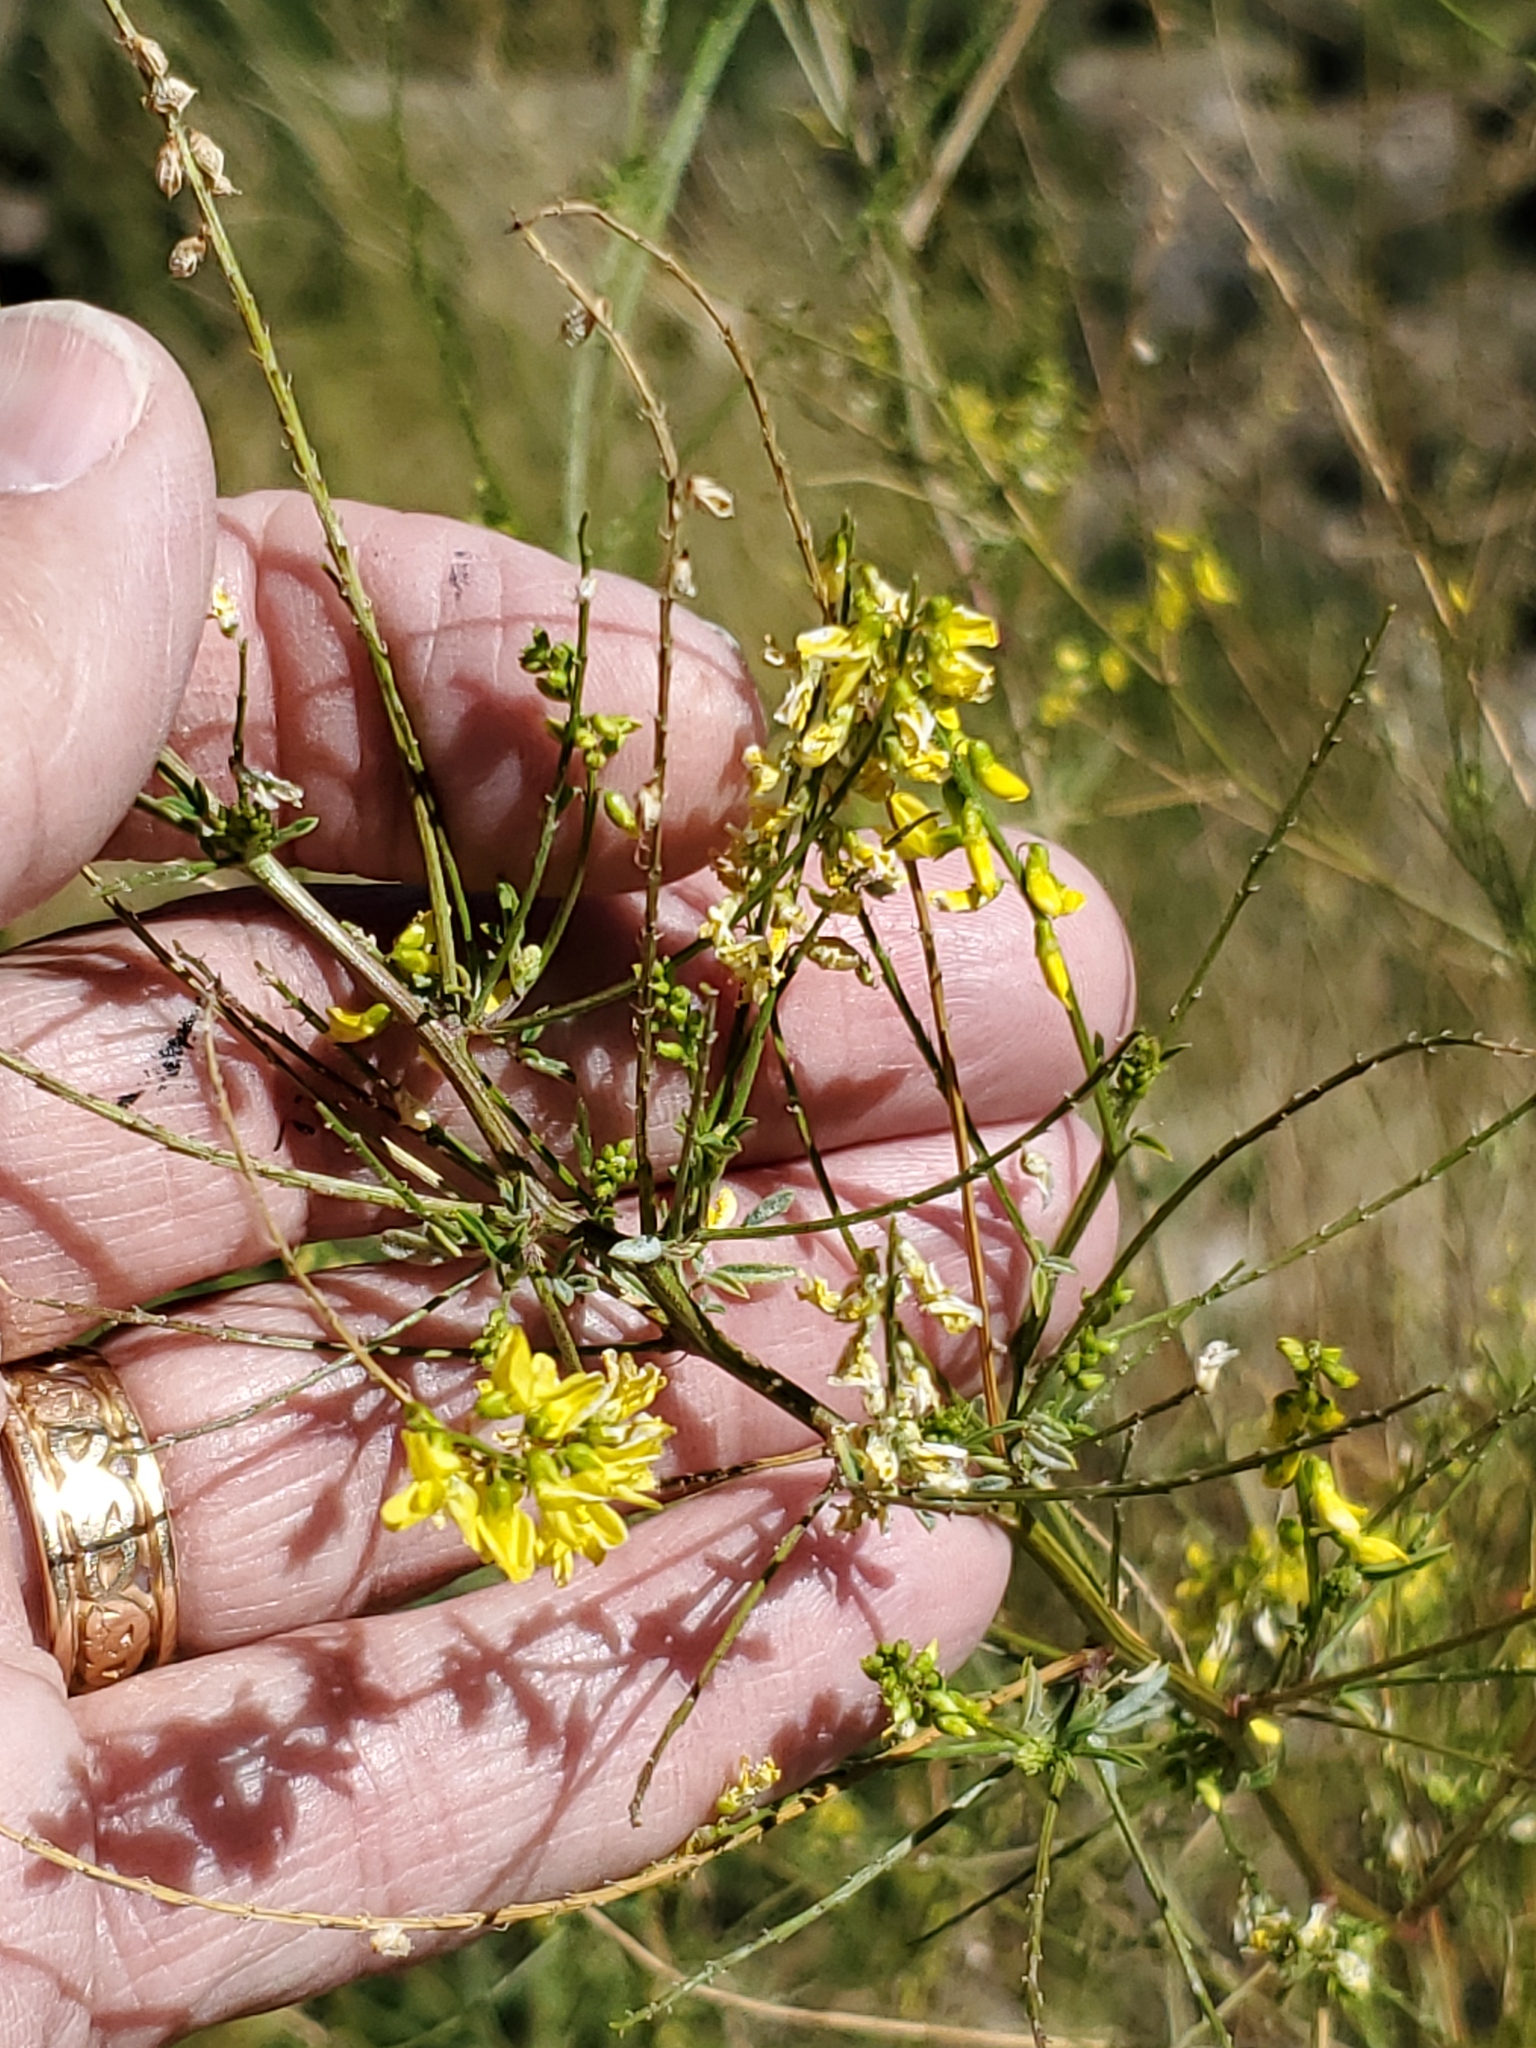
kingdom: Plantae
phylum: Tracheophyta
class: Magnoliopsida
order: Fabales
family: Fabaceae
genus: Melilotus
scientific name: Melilotus officinalis
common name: Sweetclover
